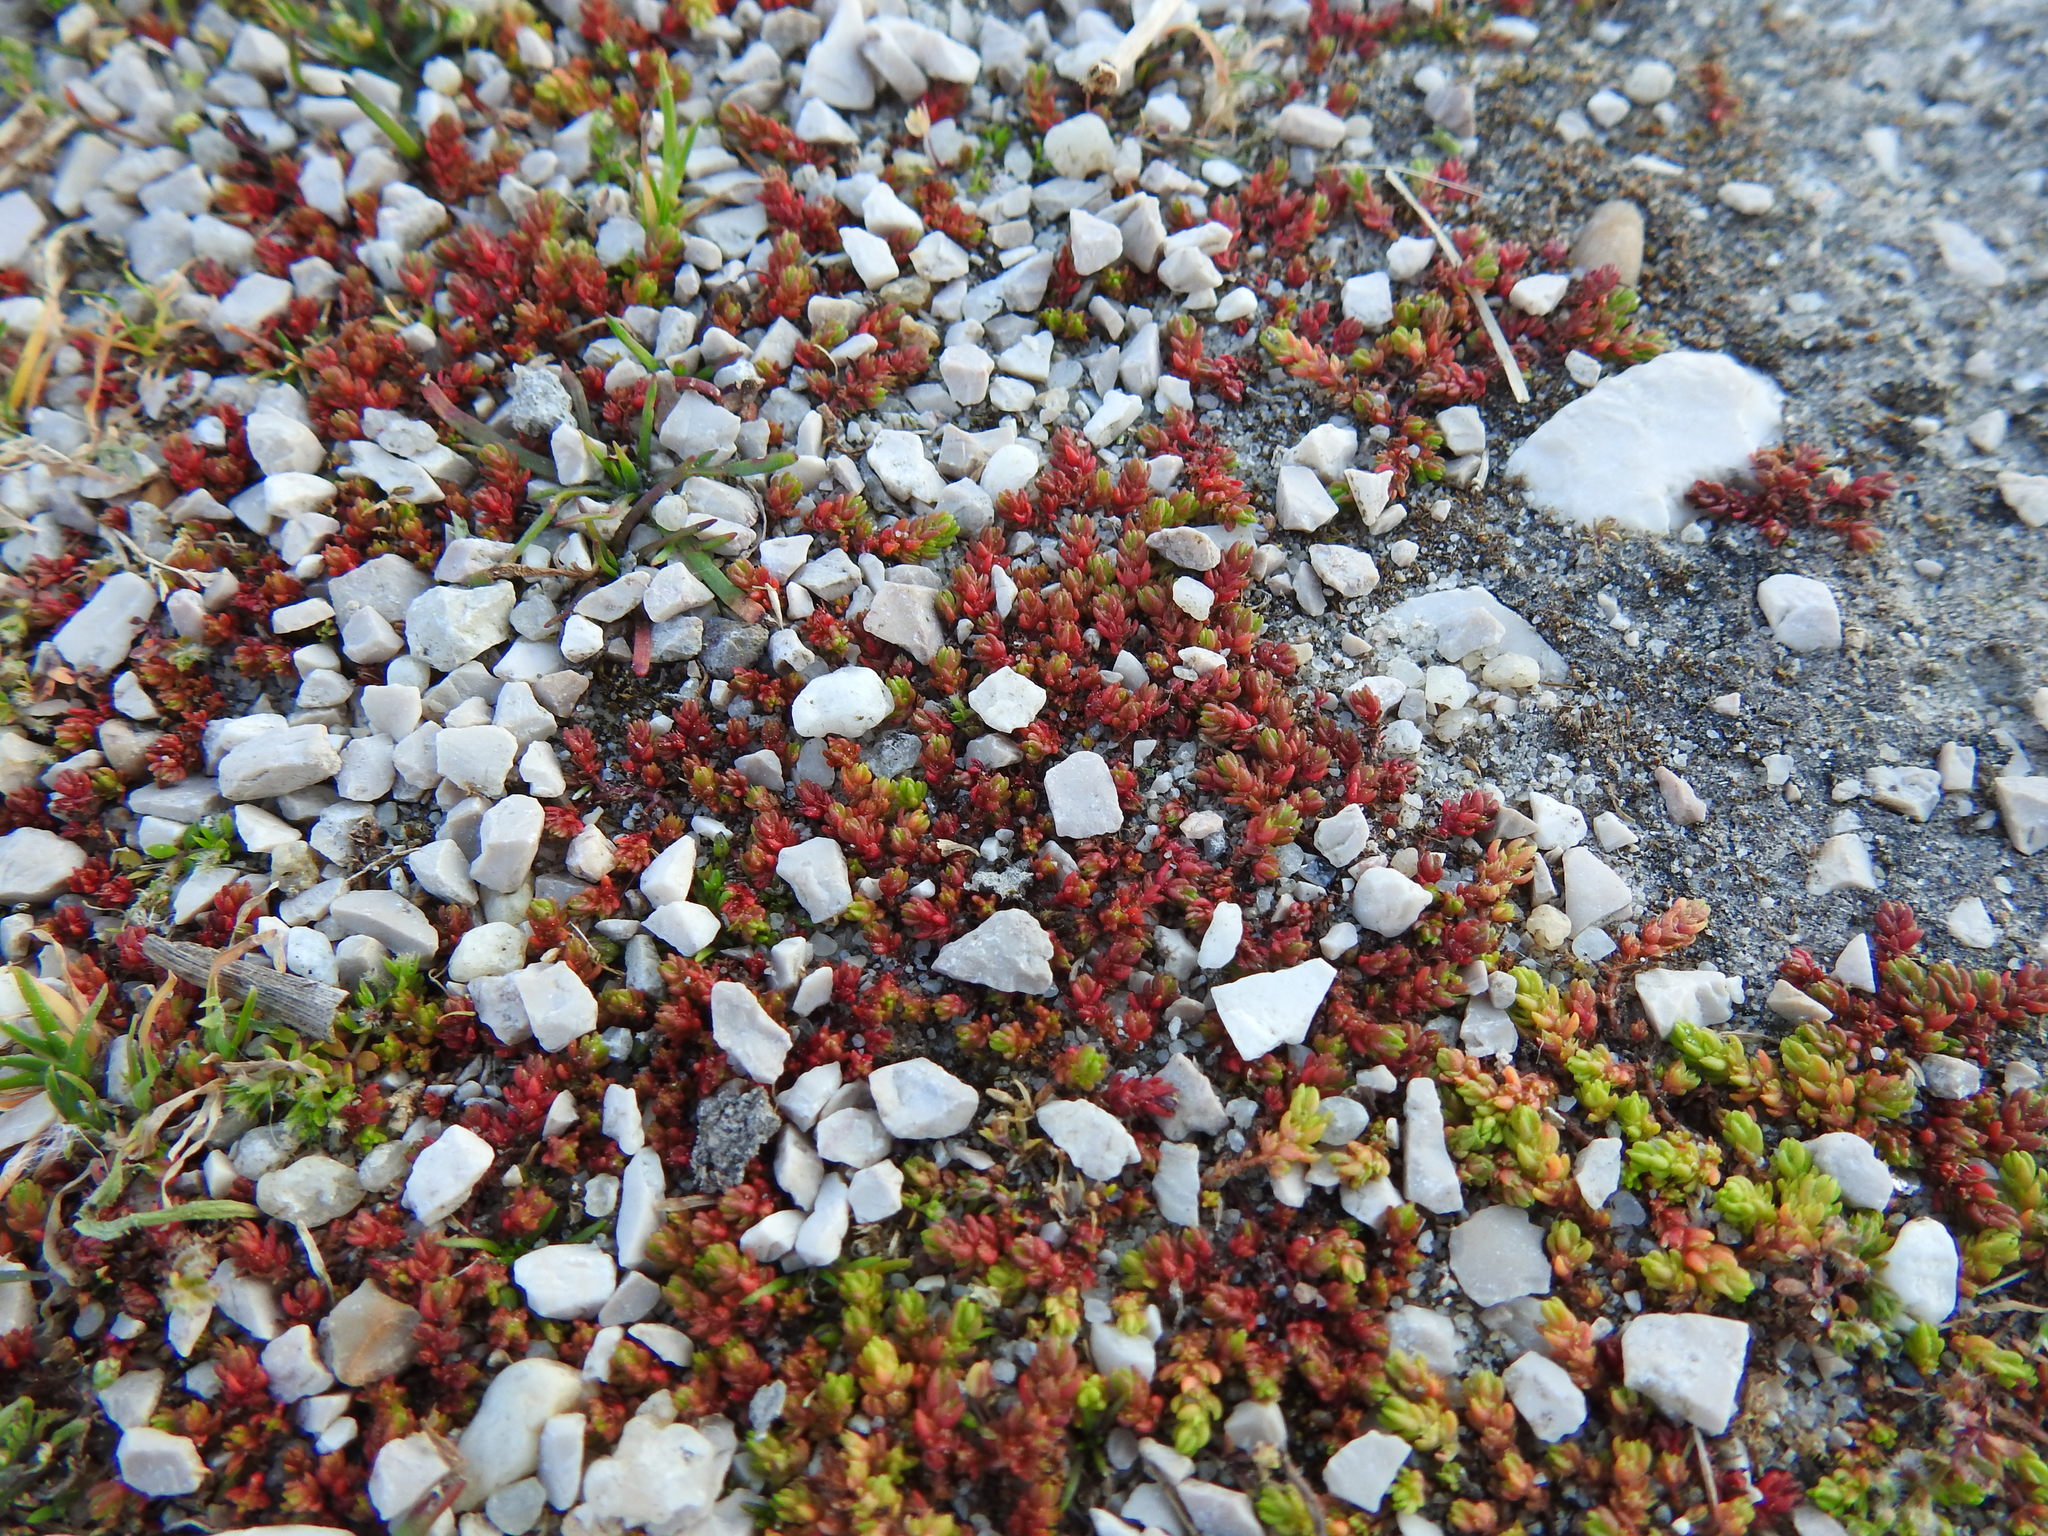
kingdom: Plantae
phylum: Tracheophyta
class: Magnoliopsida
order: Saxifragales
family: Crassulaceae
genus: Crassula
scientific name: Crassula tillaea
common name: Mossy stonecrop
